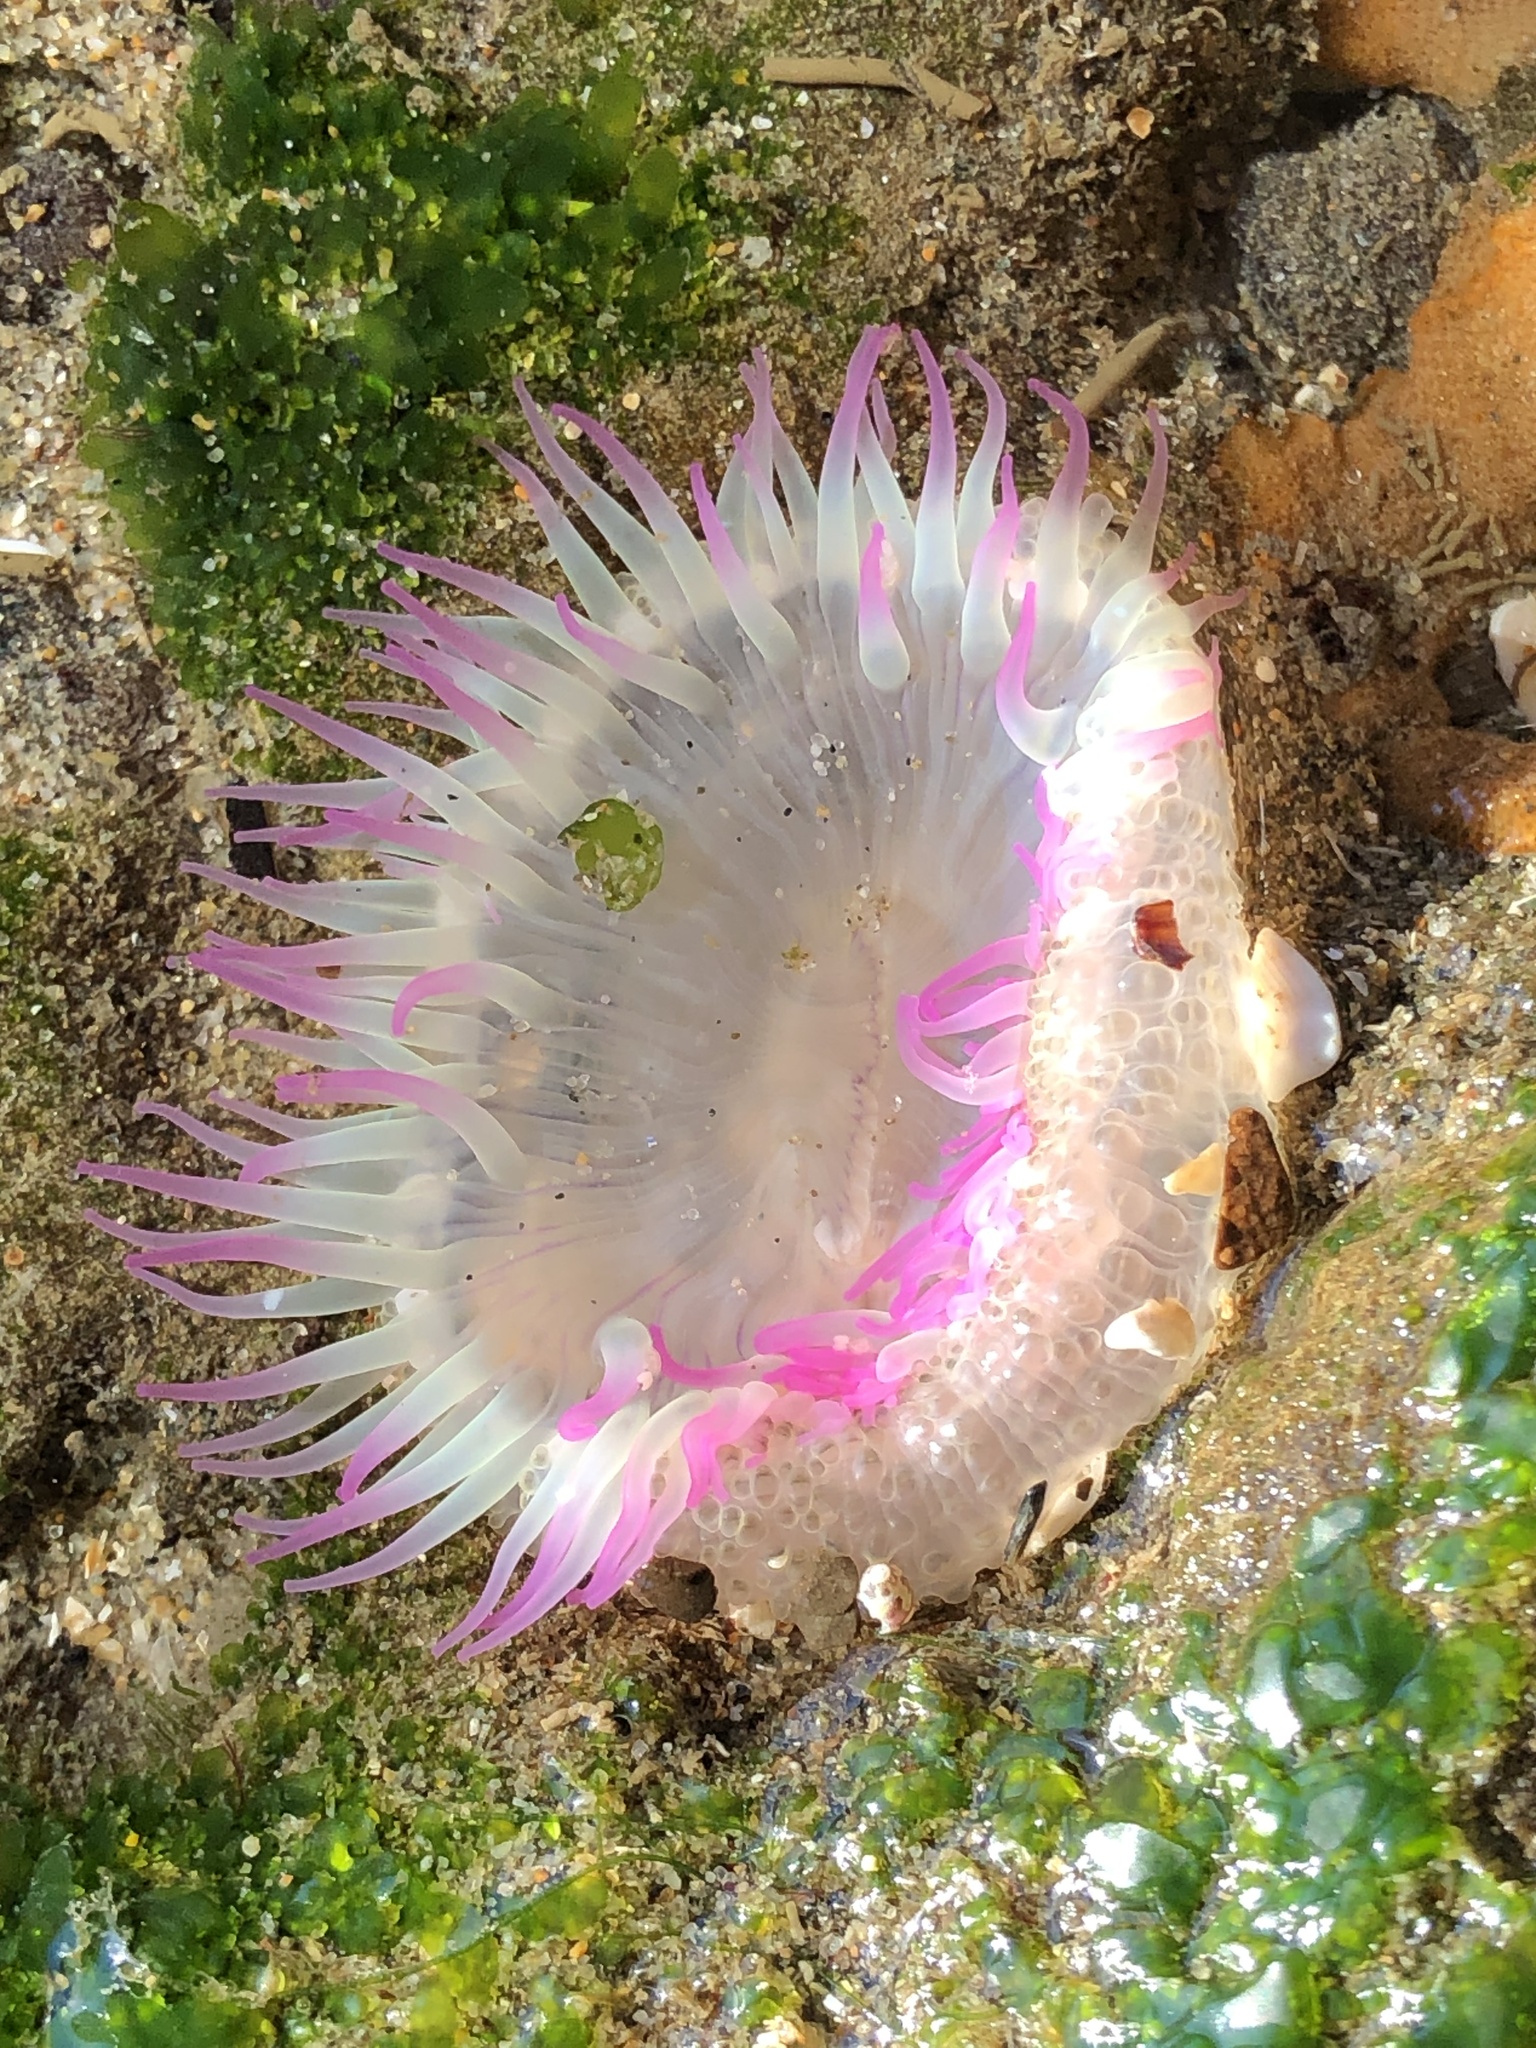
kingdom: Animalia
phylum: Cnidaria
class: Anthozoa
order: Actiniaria
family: Actiniidae
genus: Anthopleura
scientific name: Anthopleura elegantissima
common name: Clonal anemone
